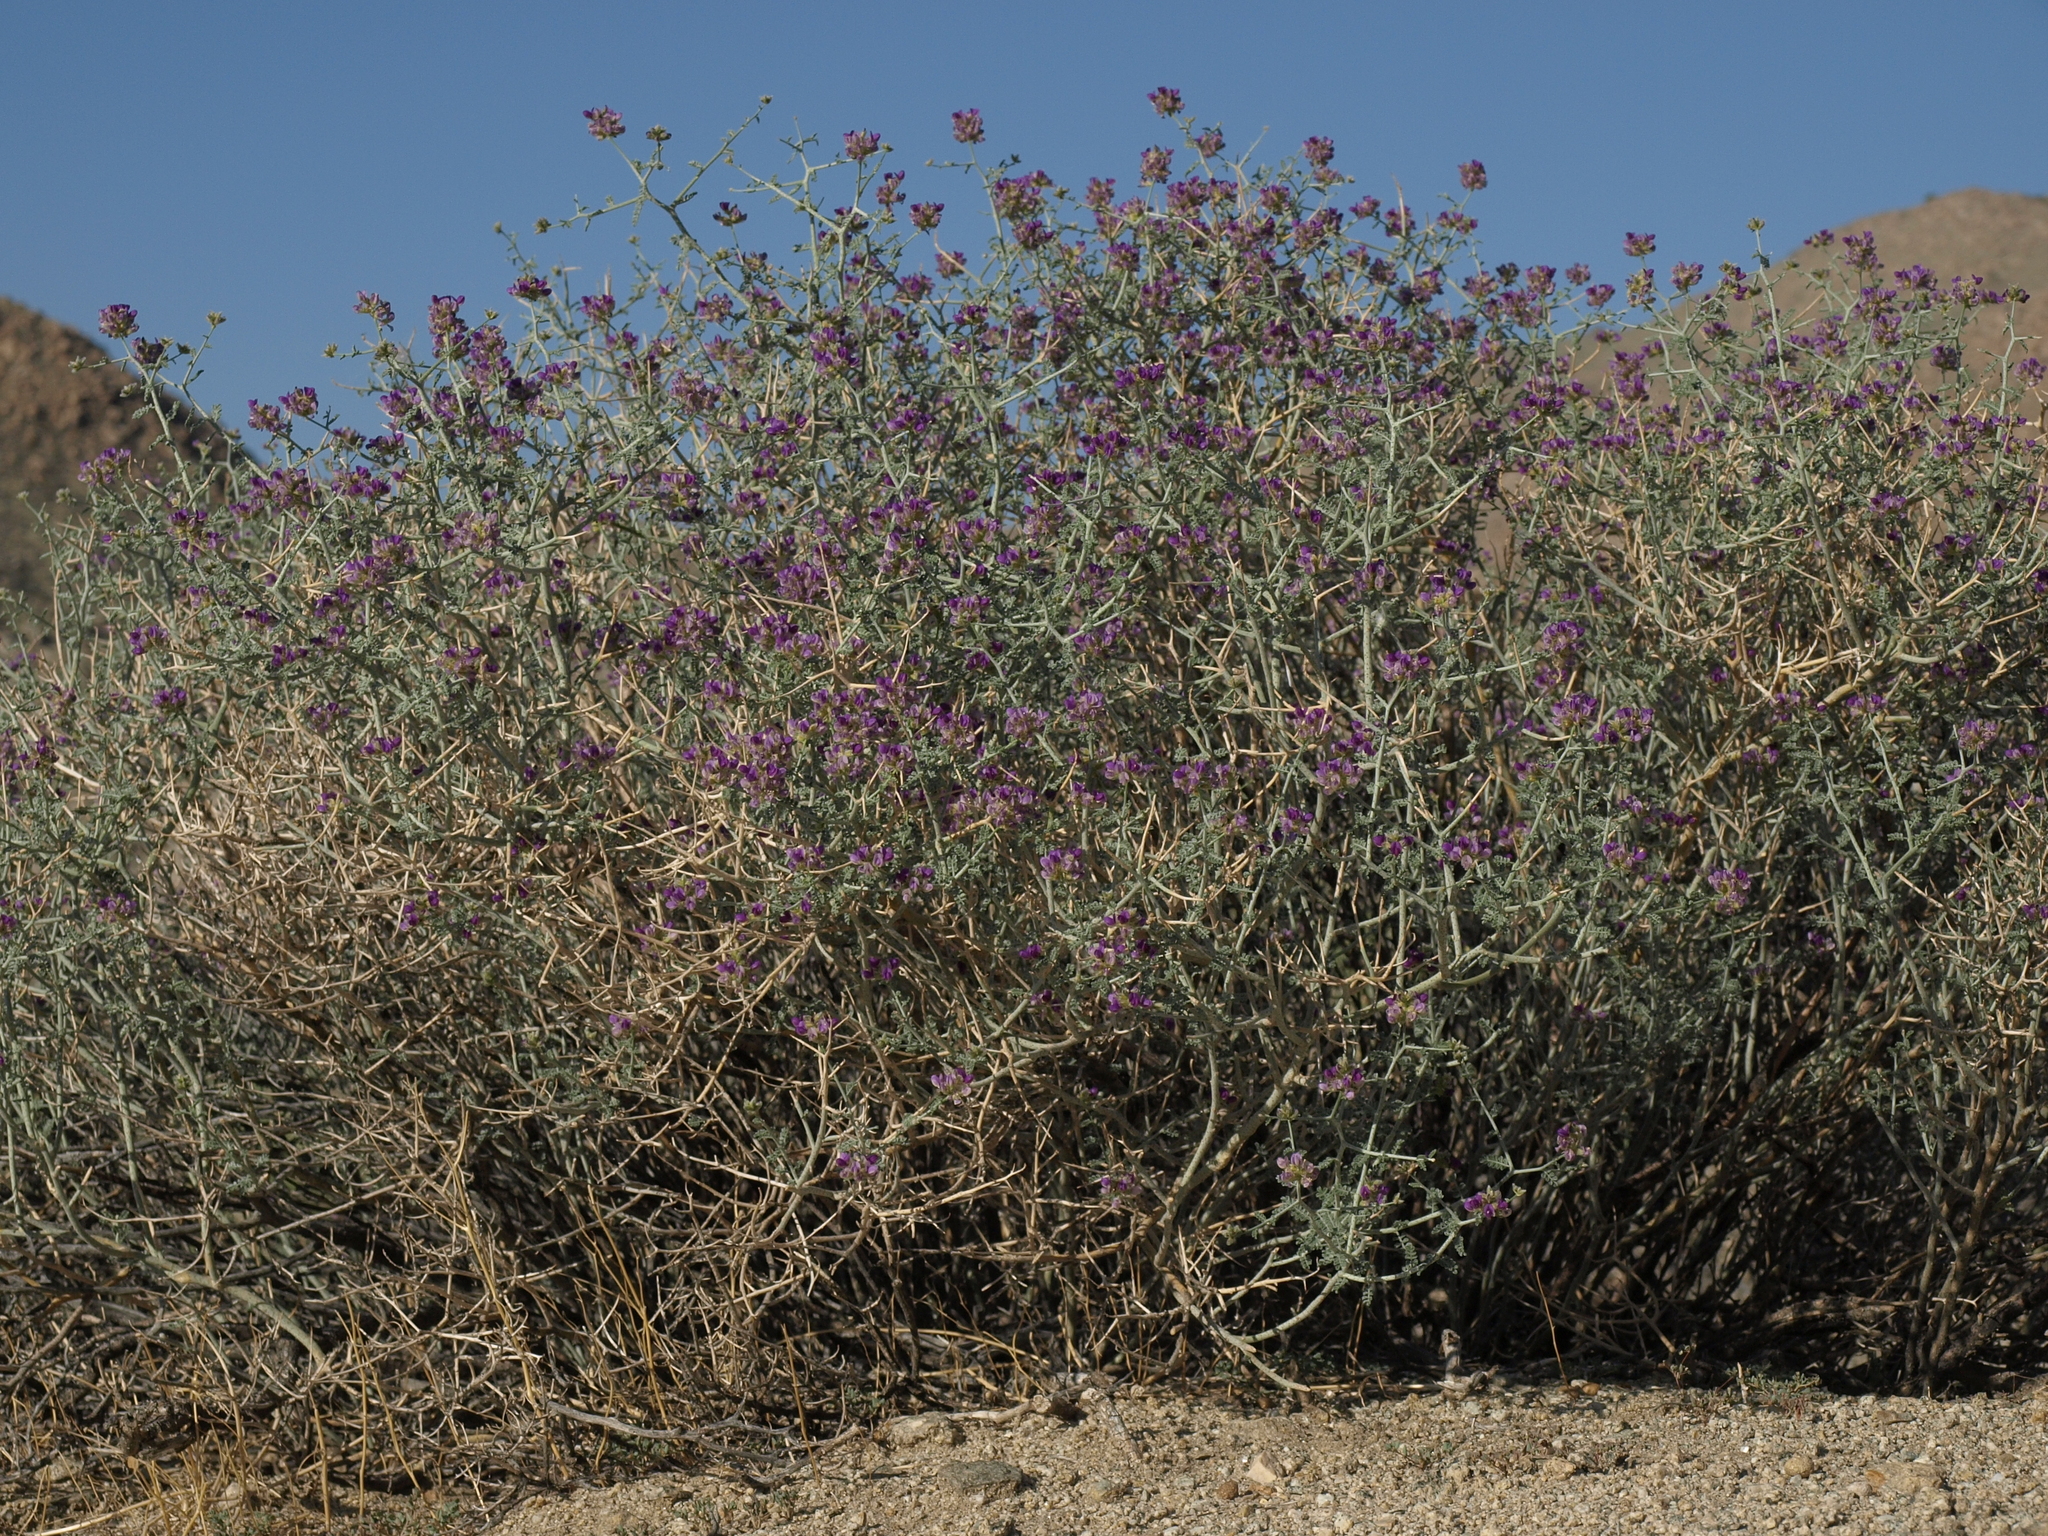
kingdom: Plantae
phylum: Tracheophyta
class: Magnoliopsida
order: Fabales
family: Fabaceae
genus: Psorothamnus
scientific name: Psorothamnus polydenius
